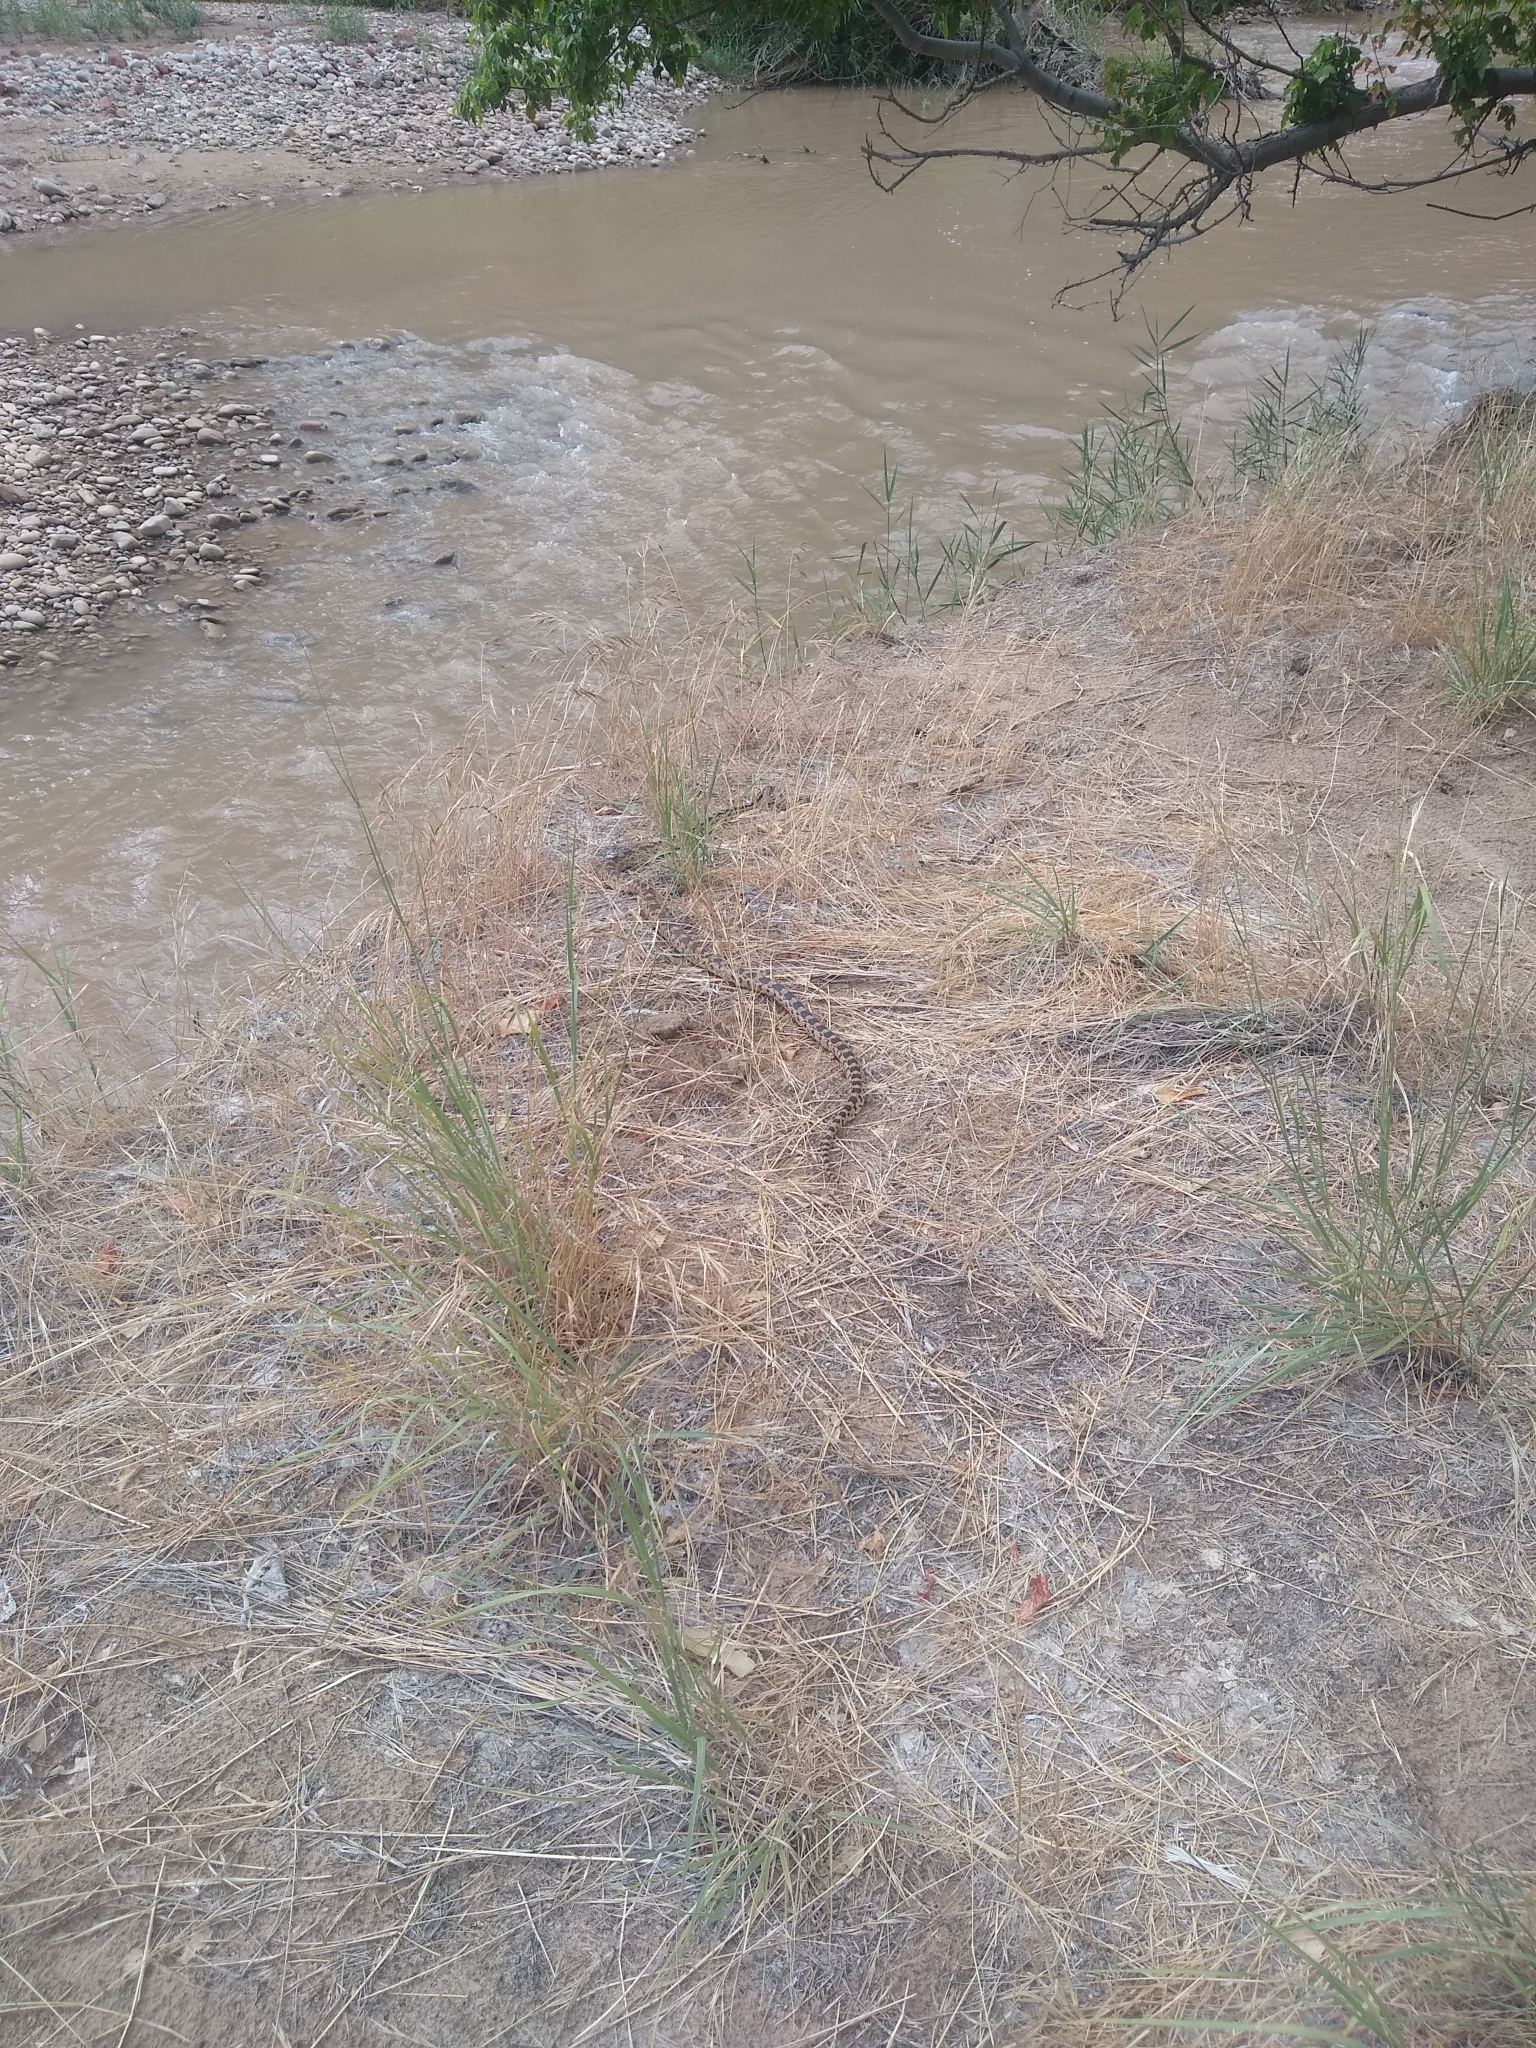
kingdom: Animalia
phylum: Chordata
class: Squamata
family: Colubridae
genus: Pituophis
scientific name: Pituophis catenifer
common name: Gopher snake
